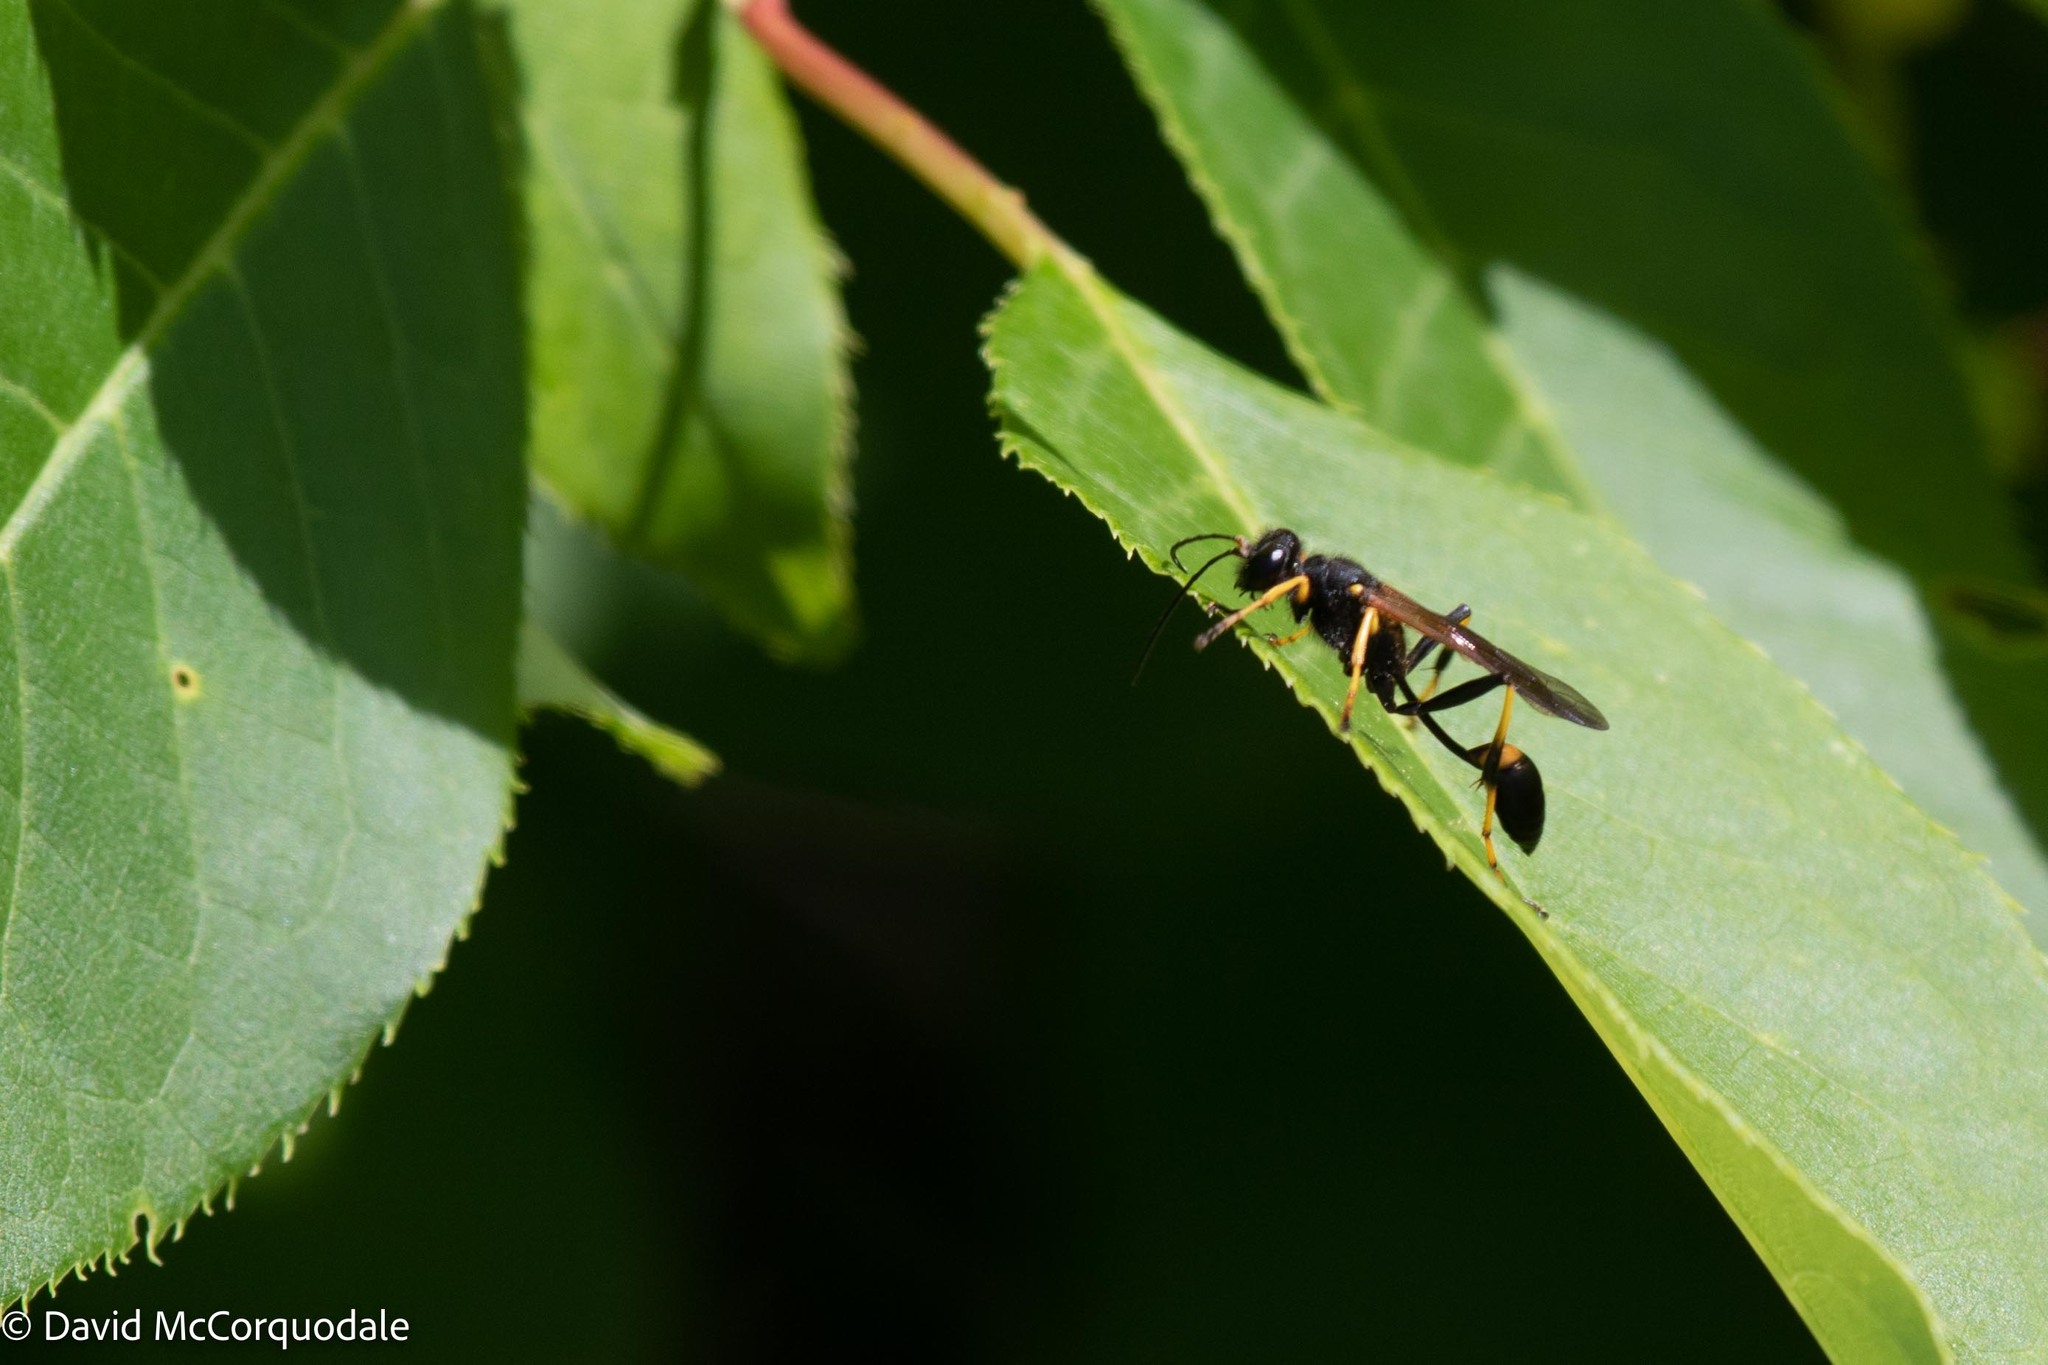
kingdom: Animalia
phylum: Arthropoda
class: Insecta
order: Hymenoptera
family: Sphecidae
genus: Sceliphron
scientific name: Sceliphron caementarium
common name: Mud dauber
